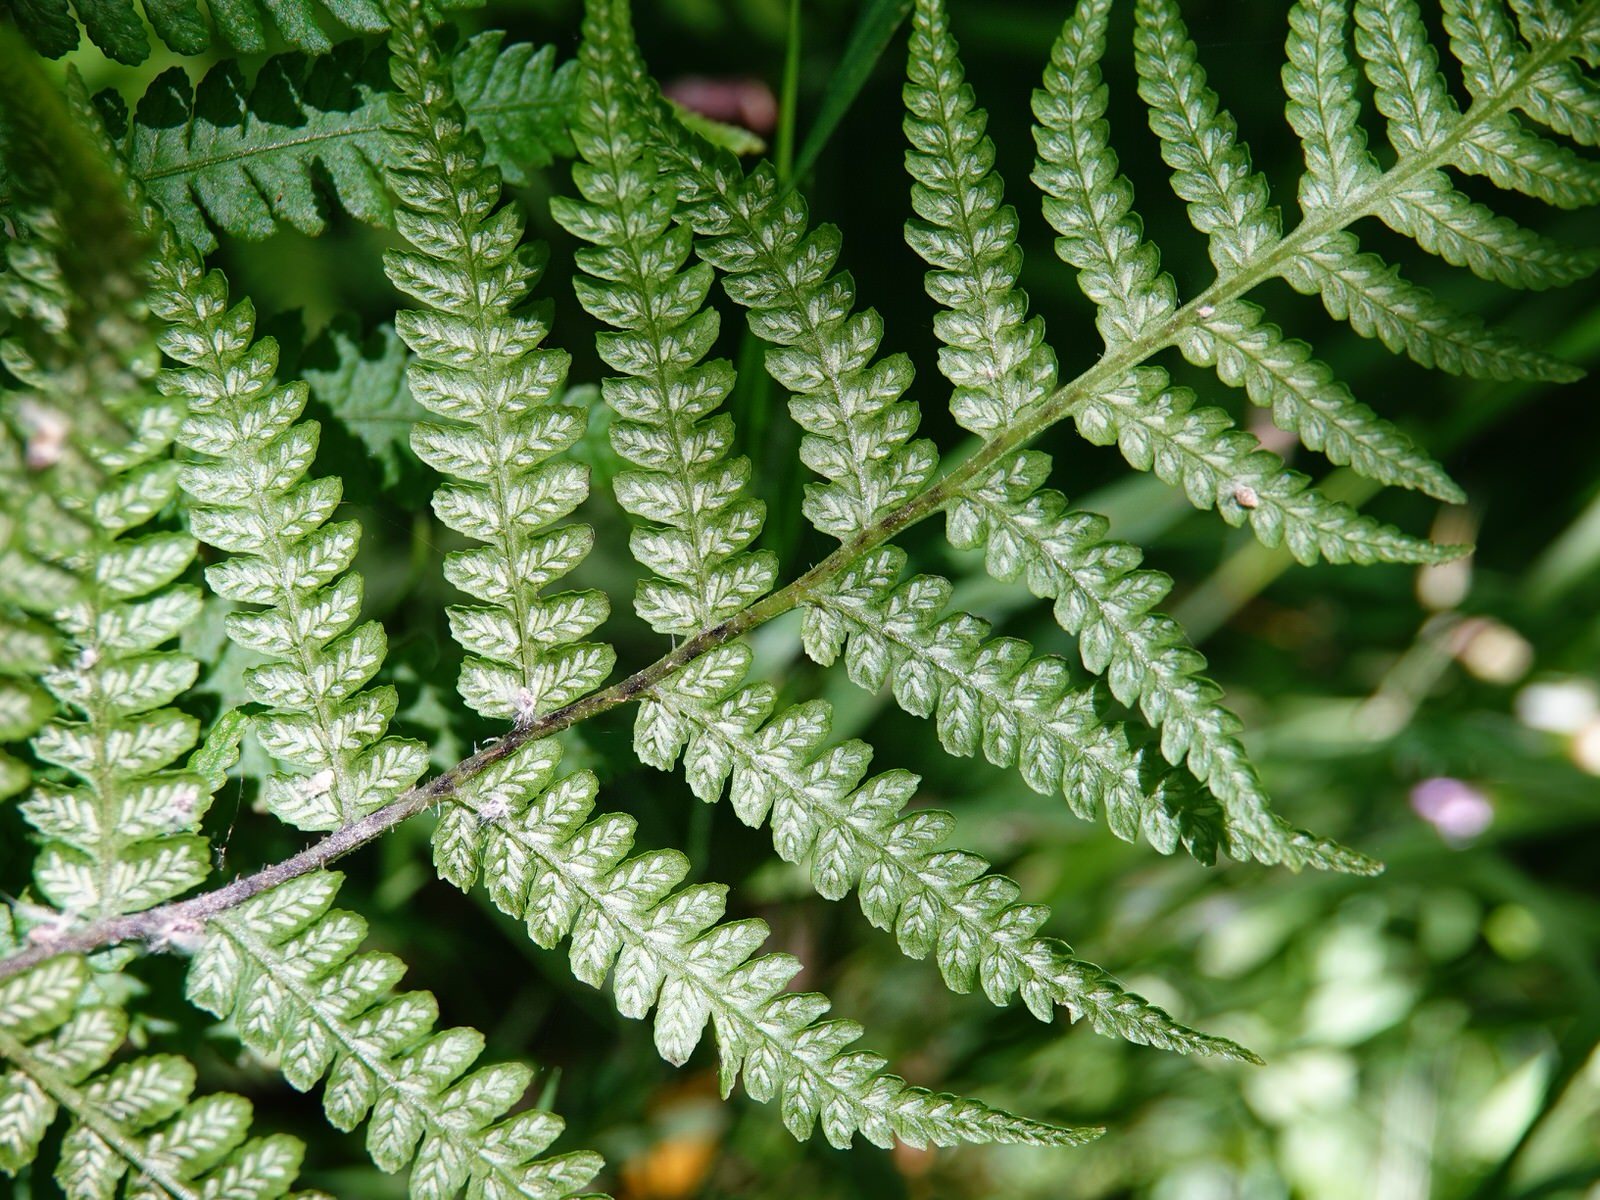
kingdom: Plantae
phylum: Tracheophyta
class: Polypodiopsida
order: Polypodiales
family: Athyriaceae
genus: Diplazium
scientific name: Diplazium congruum
